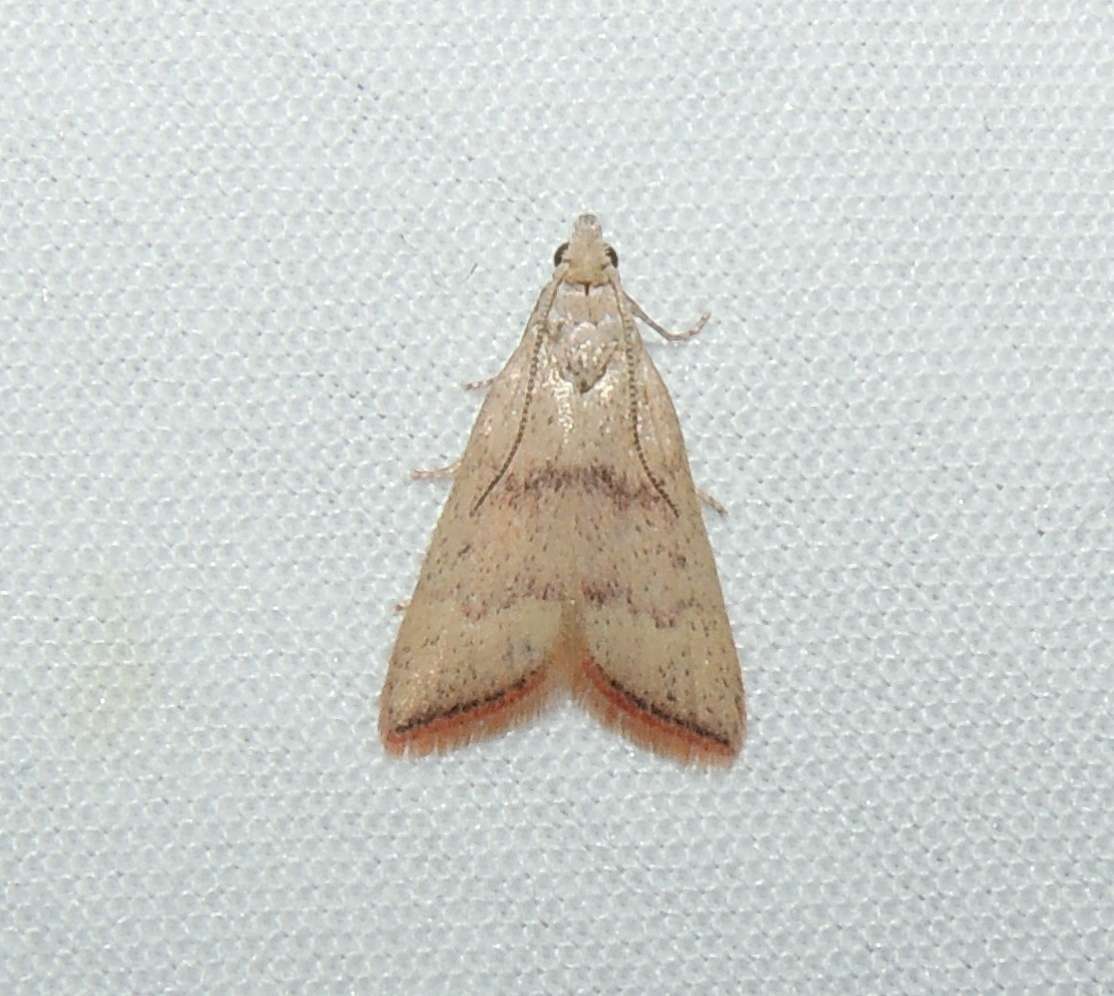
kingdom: Animalia
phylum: Arthropoda
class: Insecta
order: Lepidoptera
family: Pyralidae
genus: Callionyma
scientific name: Callionyma sarcodes
